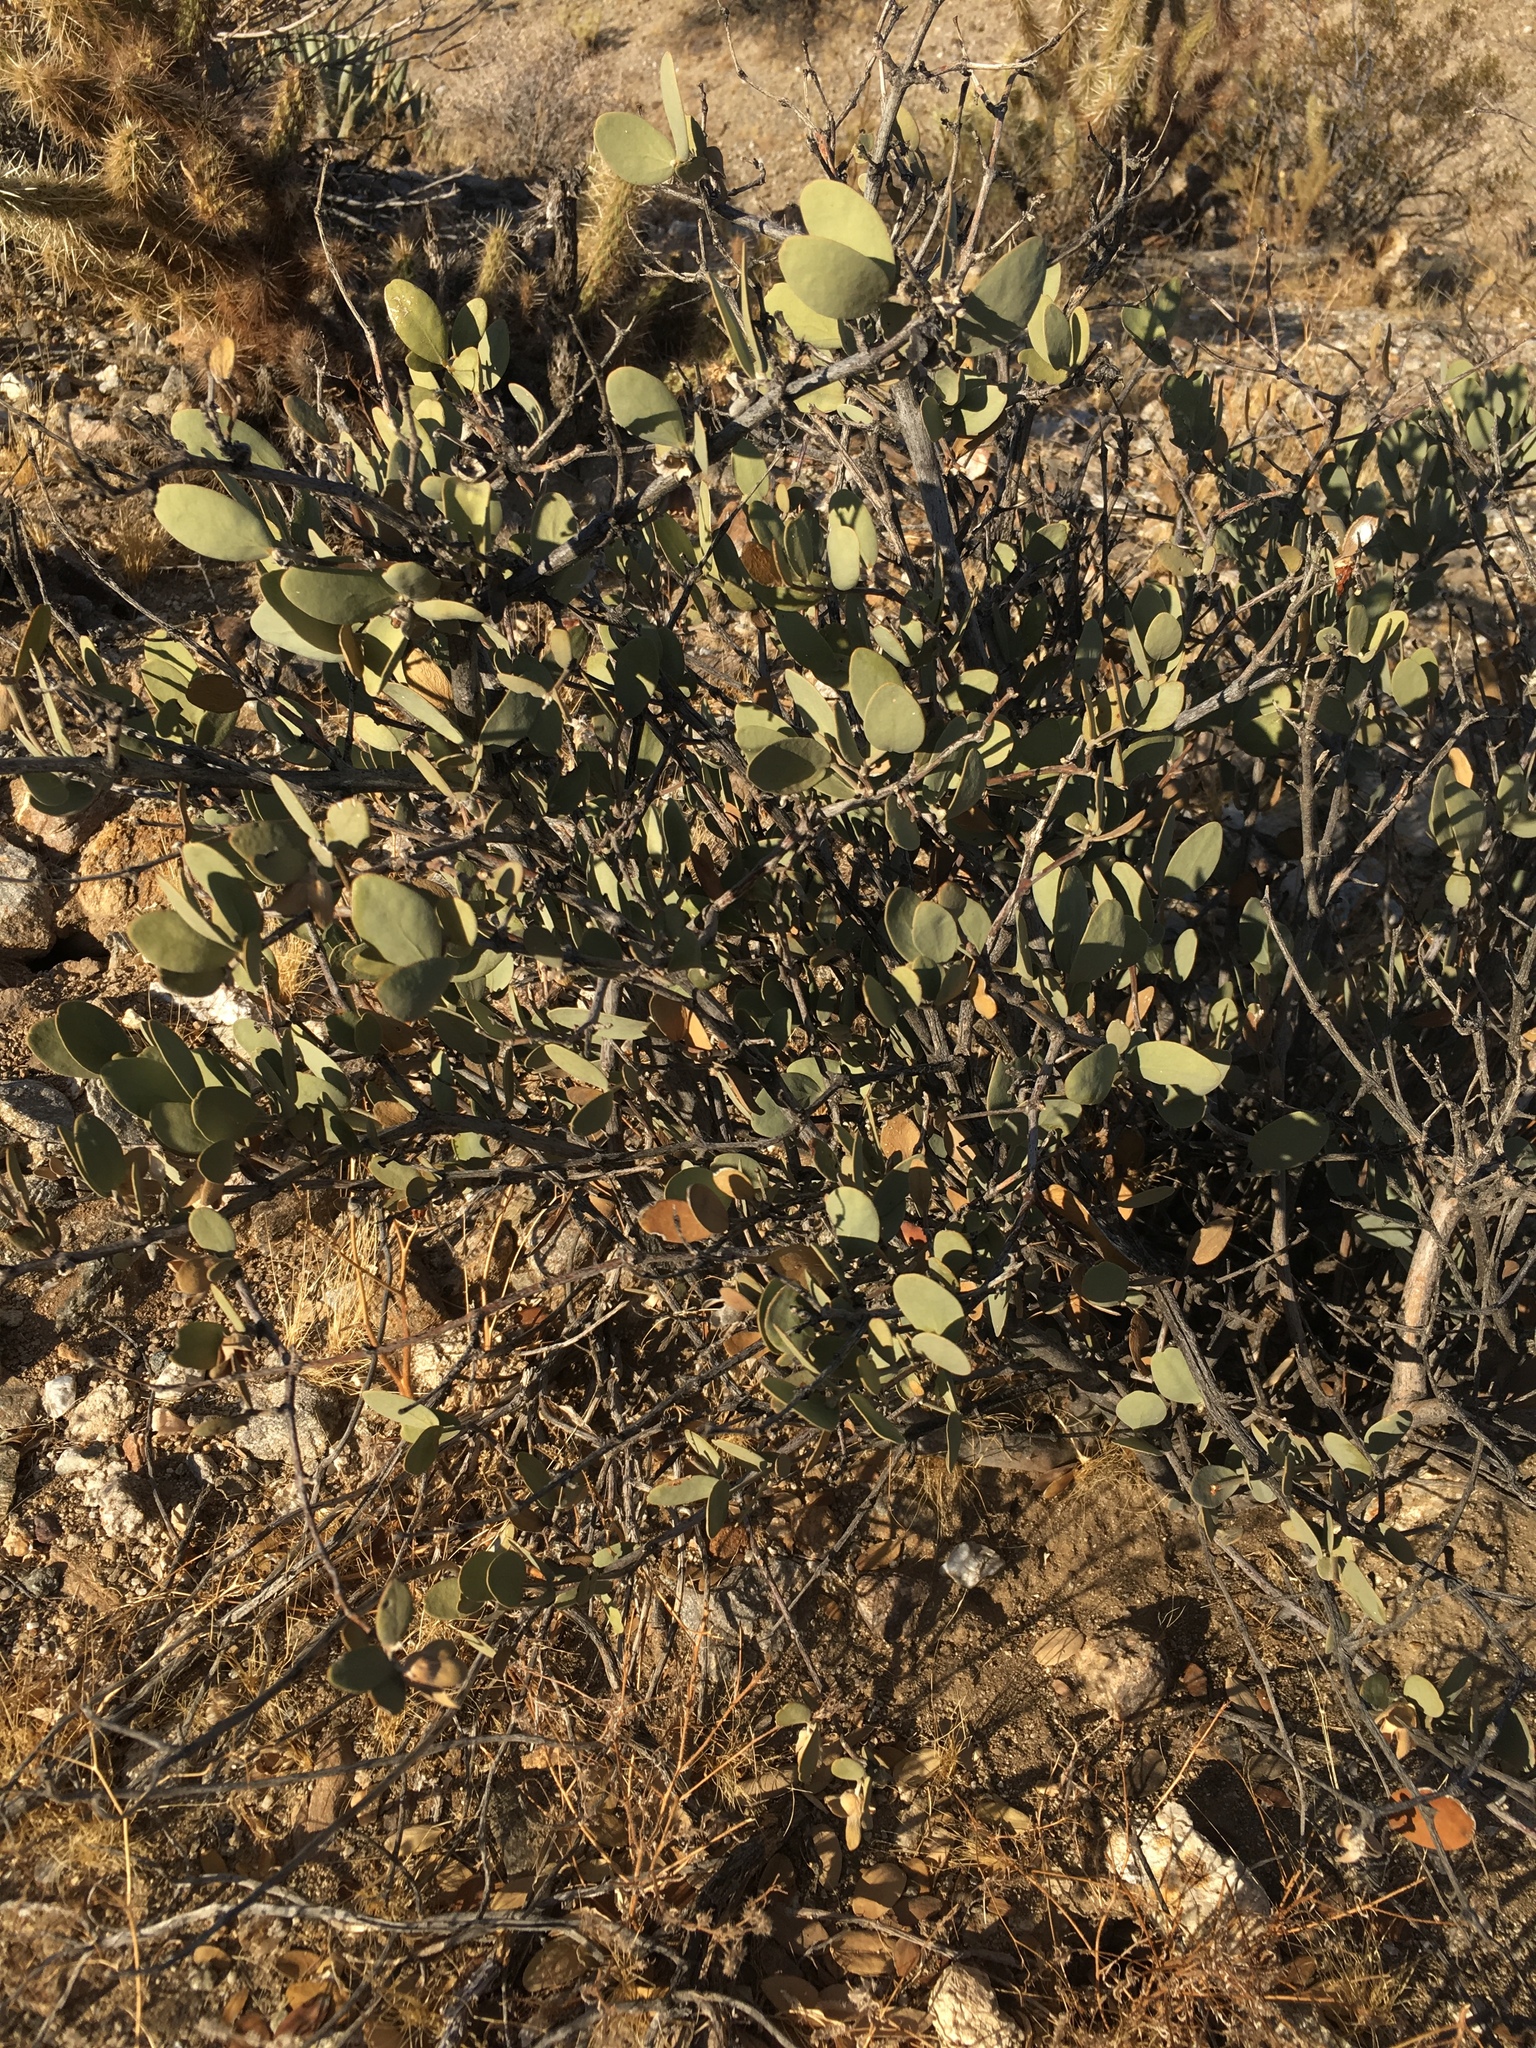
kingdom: Plantae
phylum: Tracheophyta
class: Magnoliopsida
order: Caryophyllales
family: Simmondsiaceae
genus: Simmondsia
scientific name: Simmondsia chinensis
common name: Jojoba
